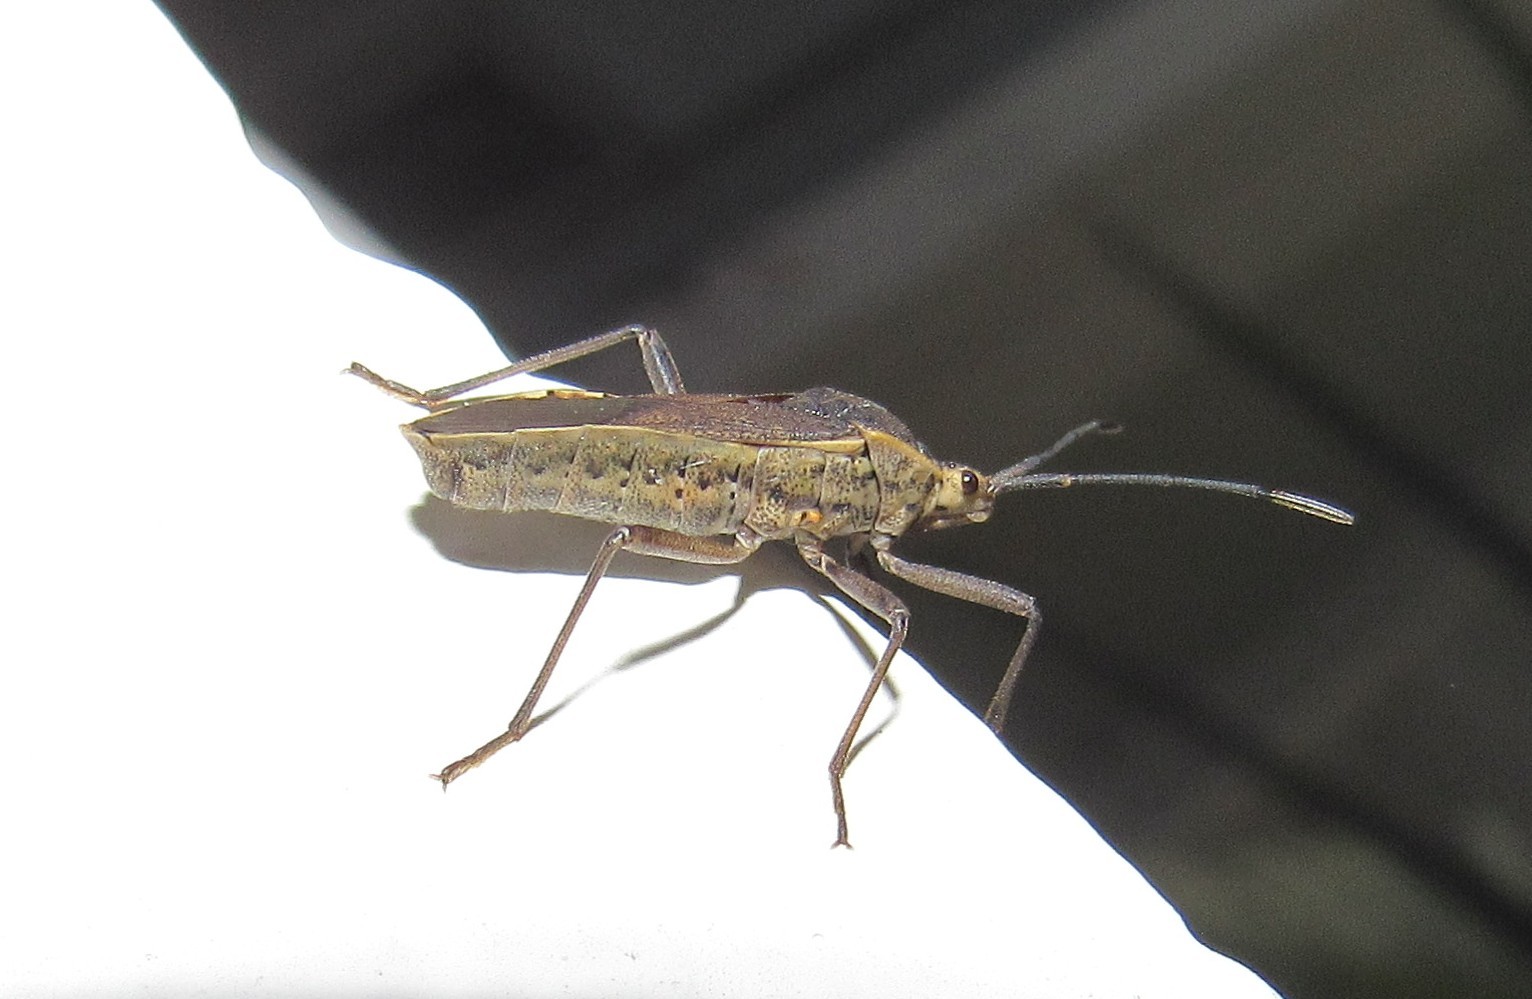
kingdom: Animalia
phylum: Arthropoda
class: Insecta
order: Hemiptera
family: Coreidae
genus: Anasa
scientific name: Anasa trilineata
